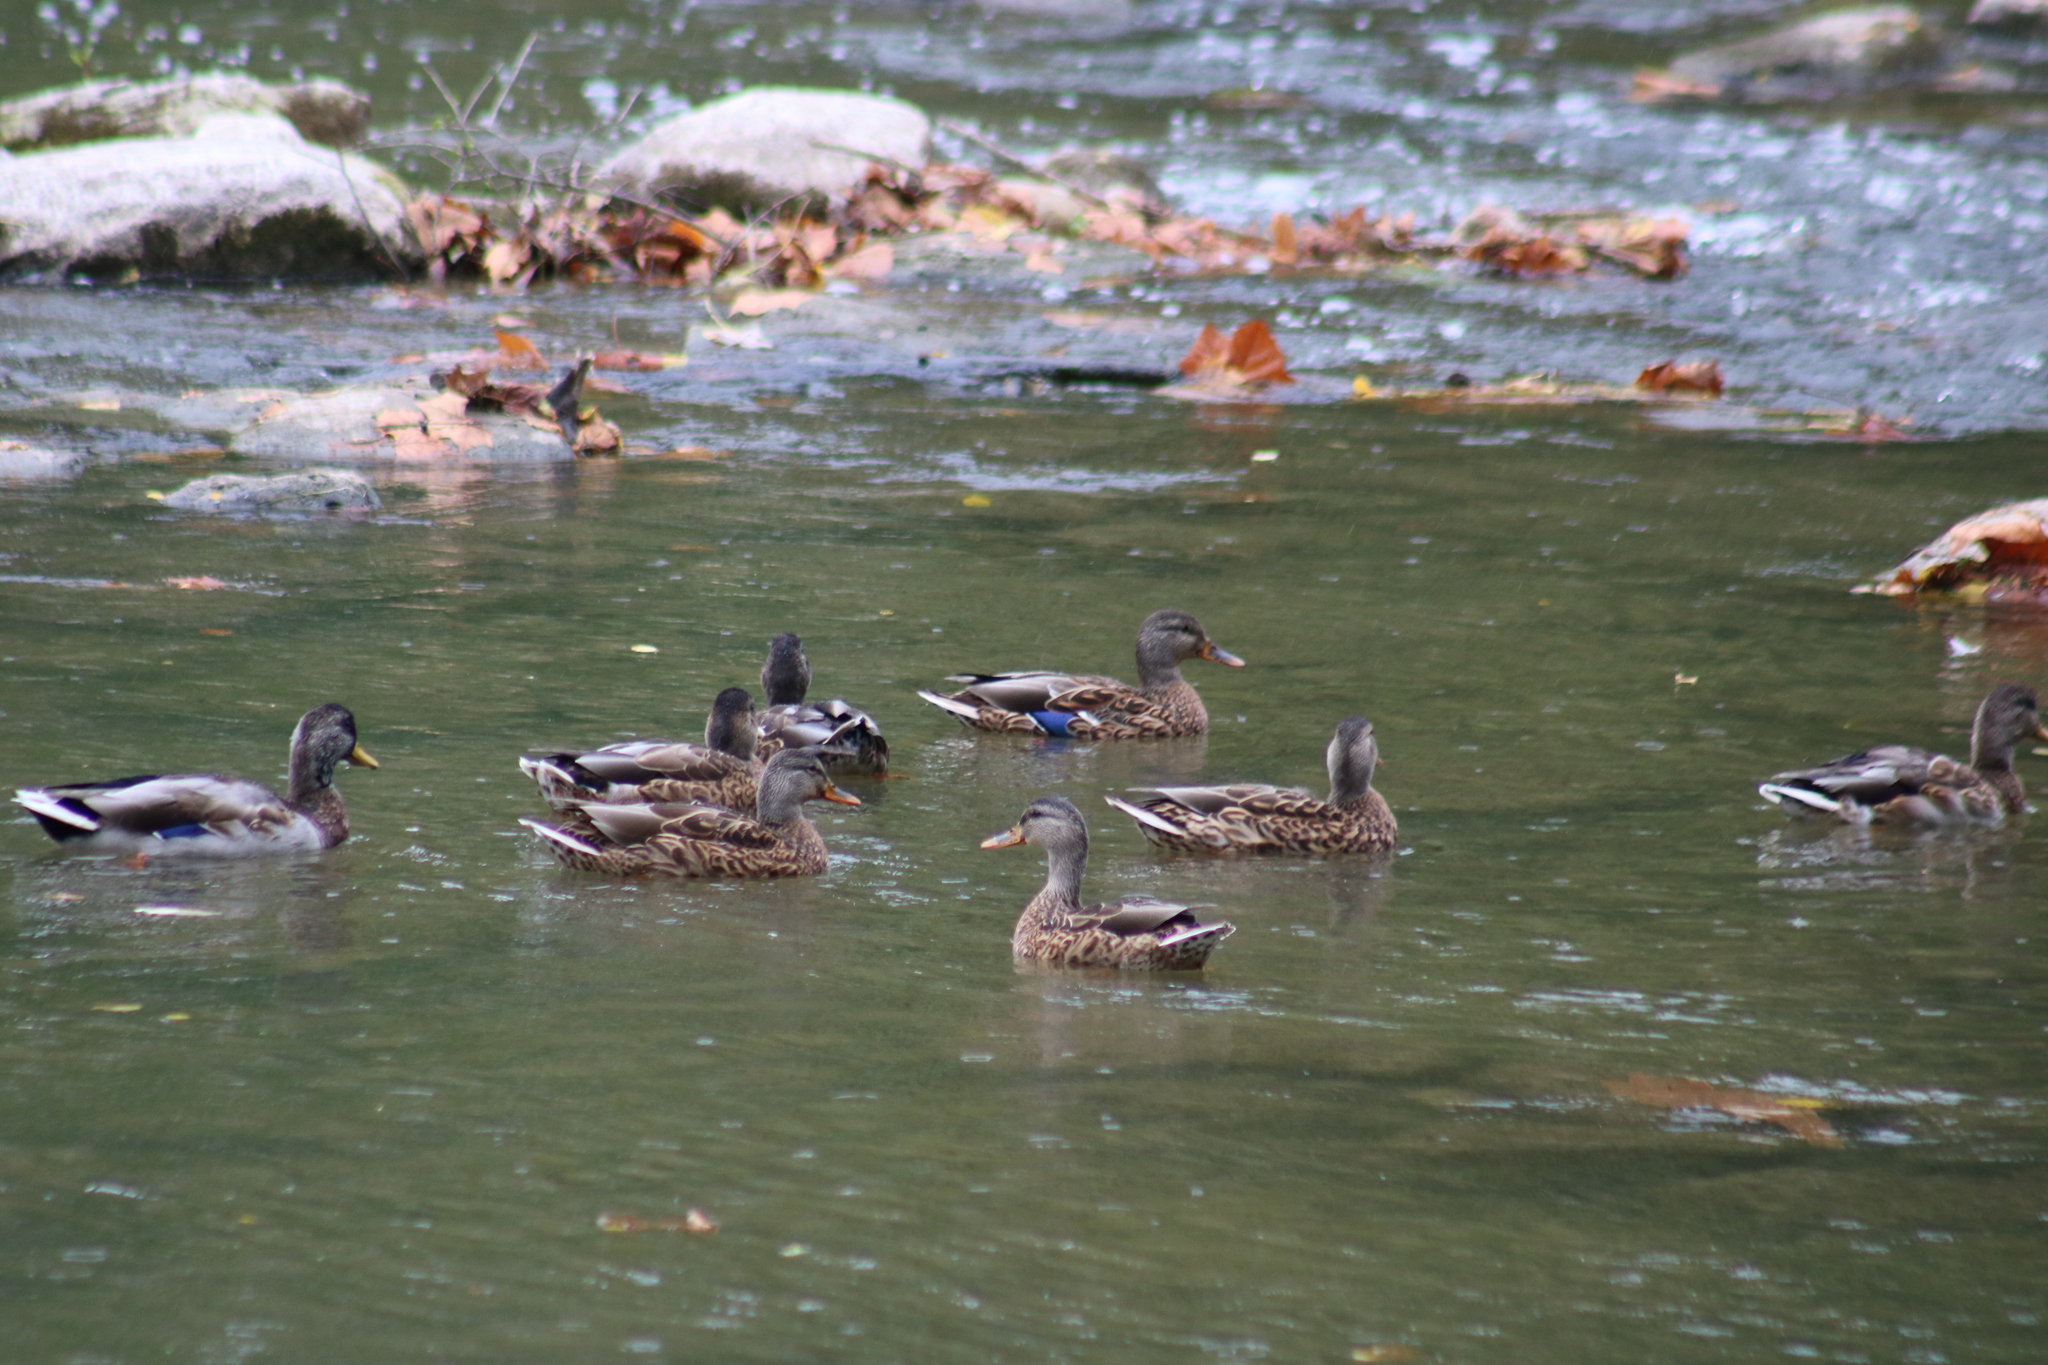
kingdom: Animalia
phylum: Chordata
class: Aves
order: Anseriformes
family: Anatidae
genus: Anas
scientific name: Anas platyrhynchos
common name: Mallard
